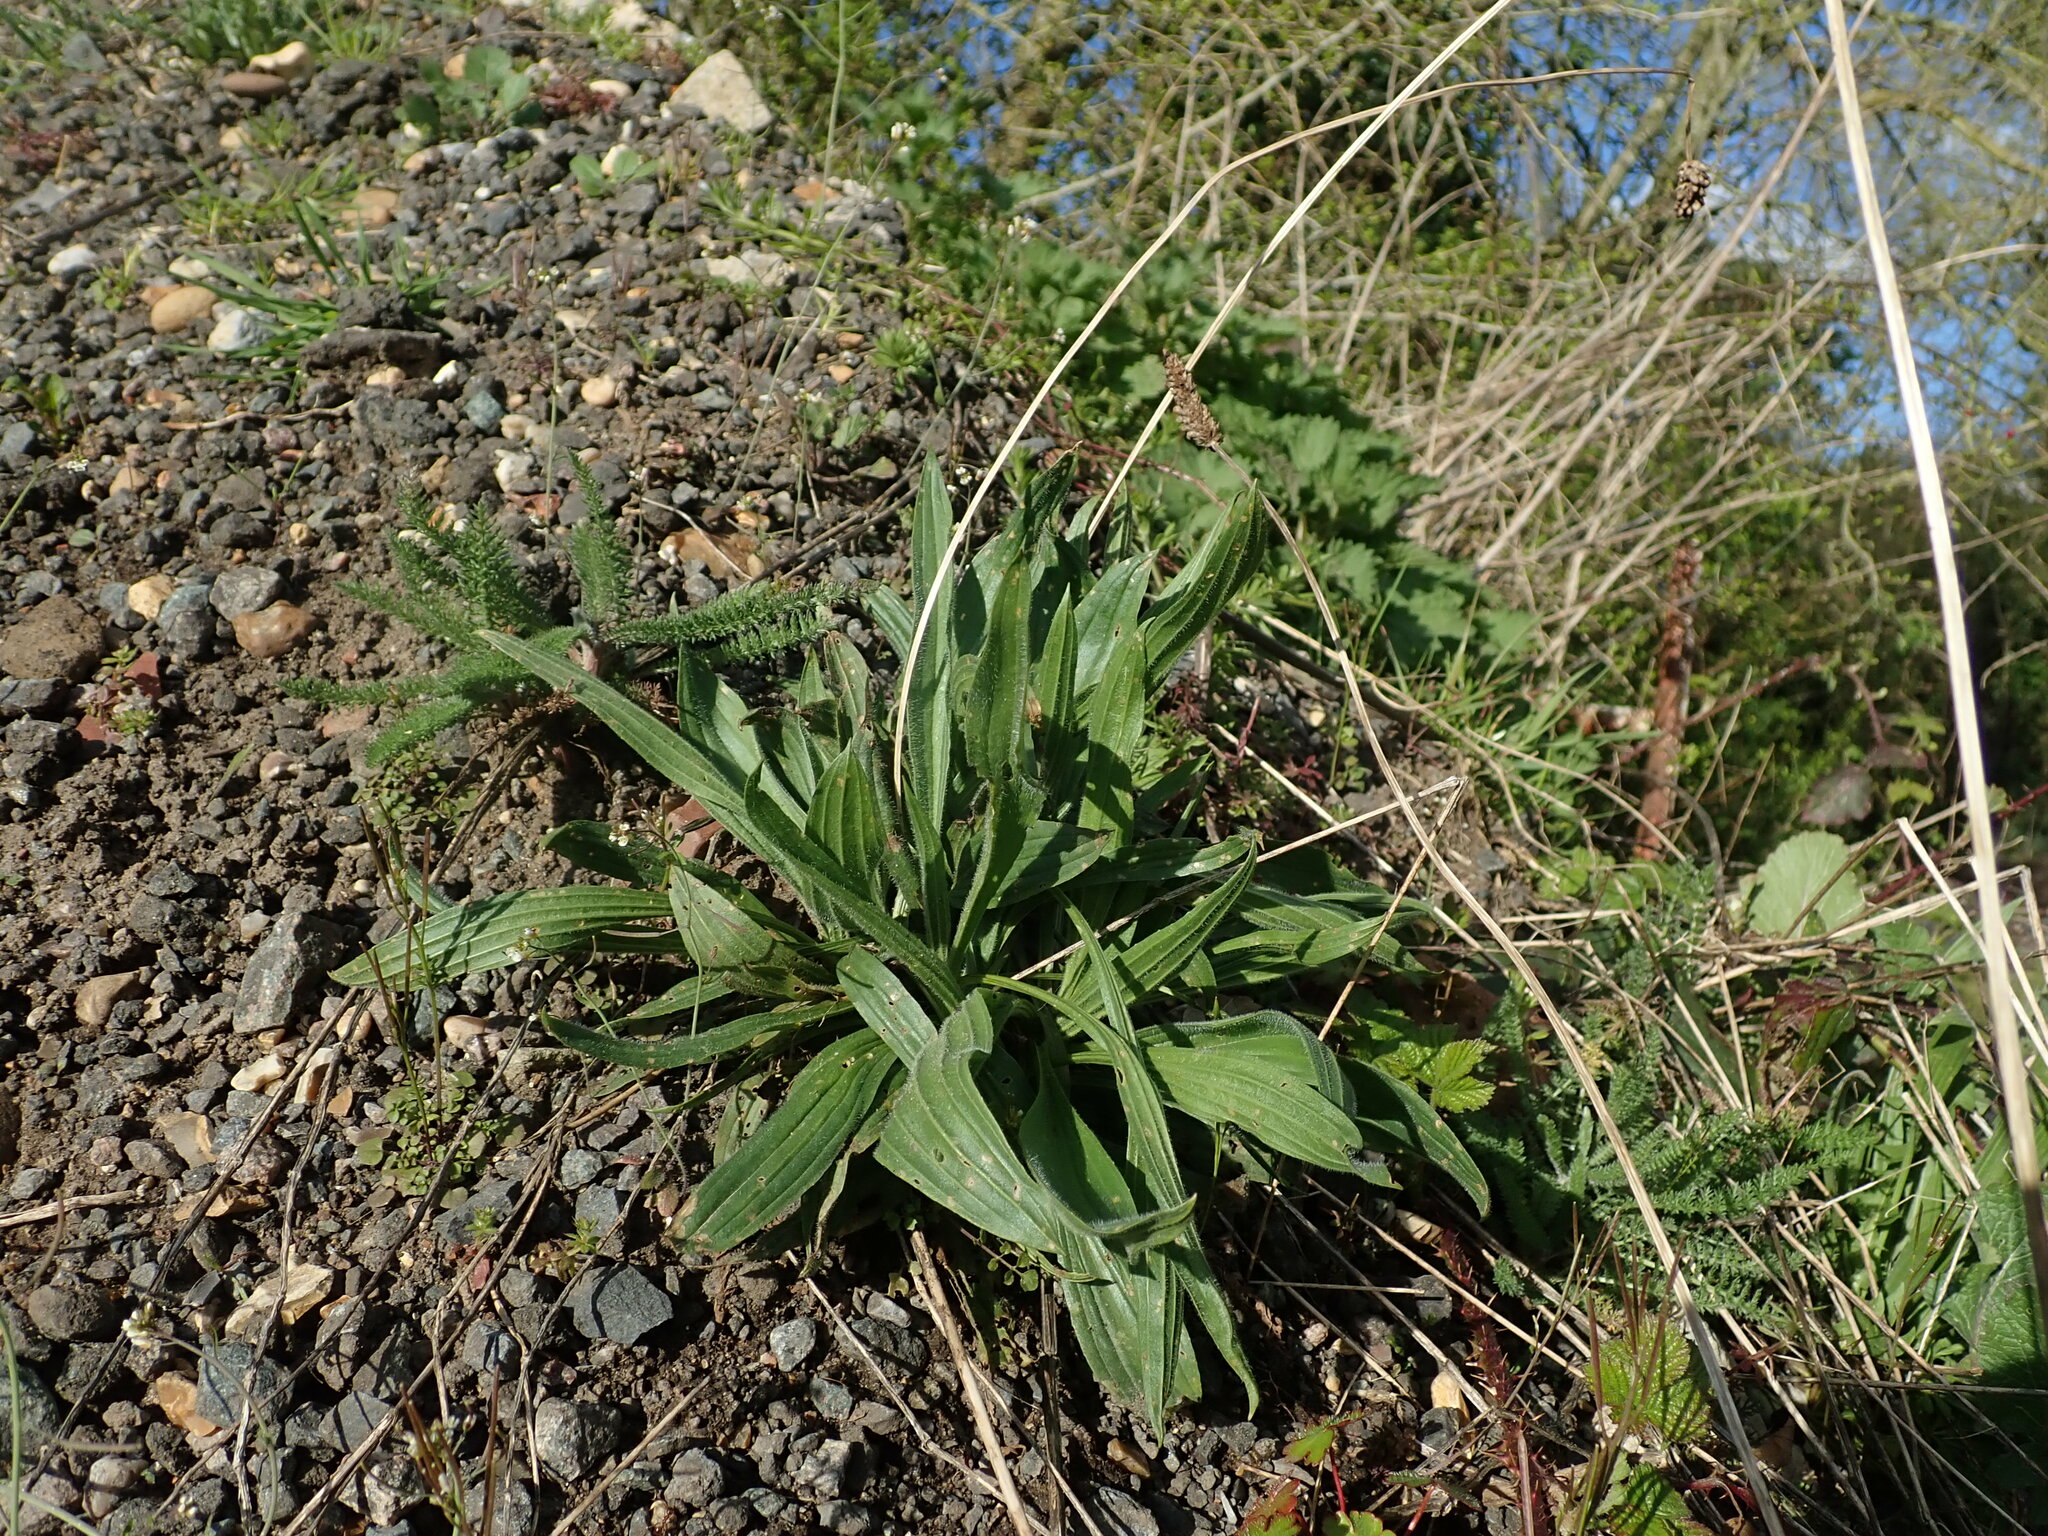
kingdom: Plantae
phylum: Tracheophyta
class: Magnoliopsida
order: Lamiales
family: Plantaginaceae
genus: Plantago
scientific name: Plantago lanceolata
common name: Ribwort plantain
